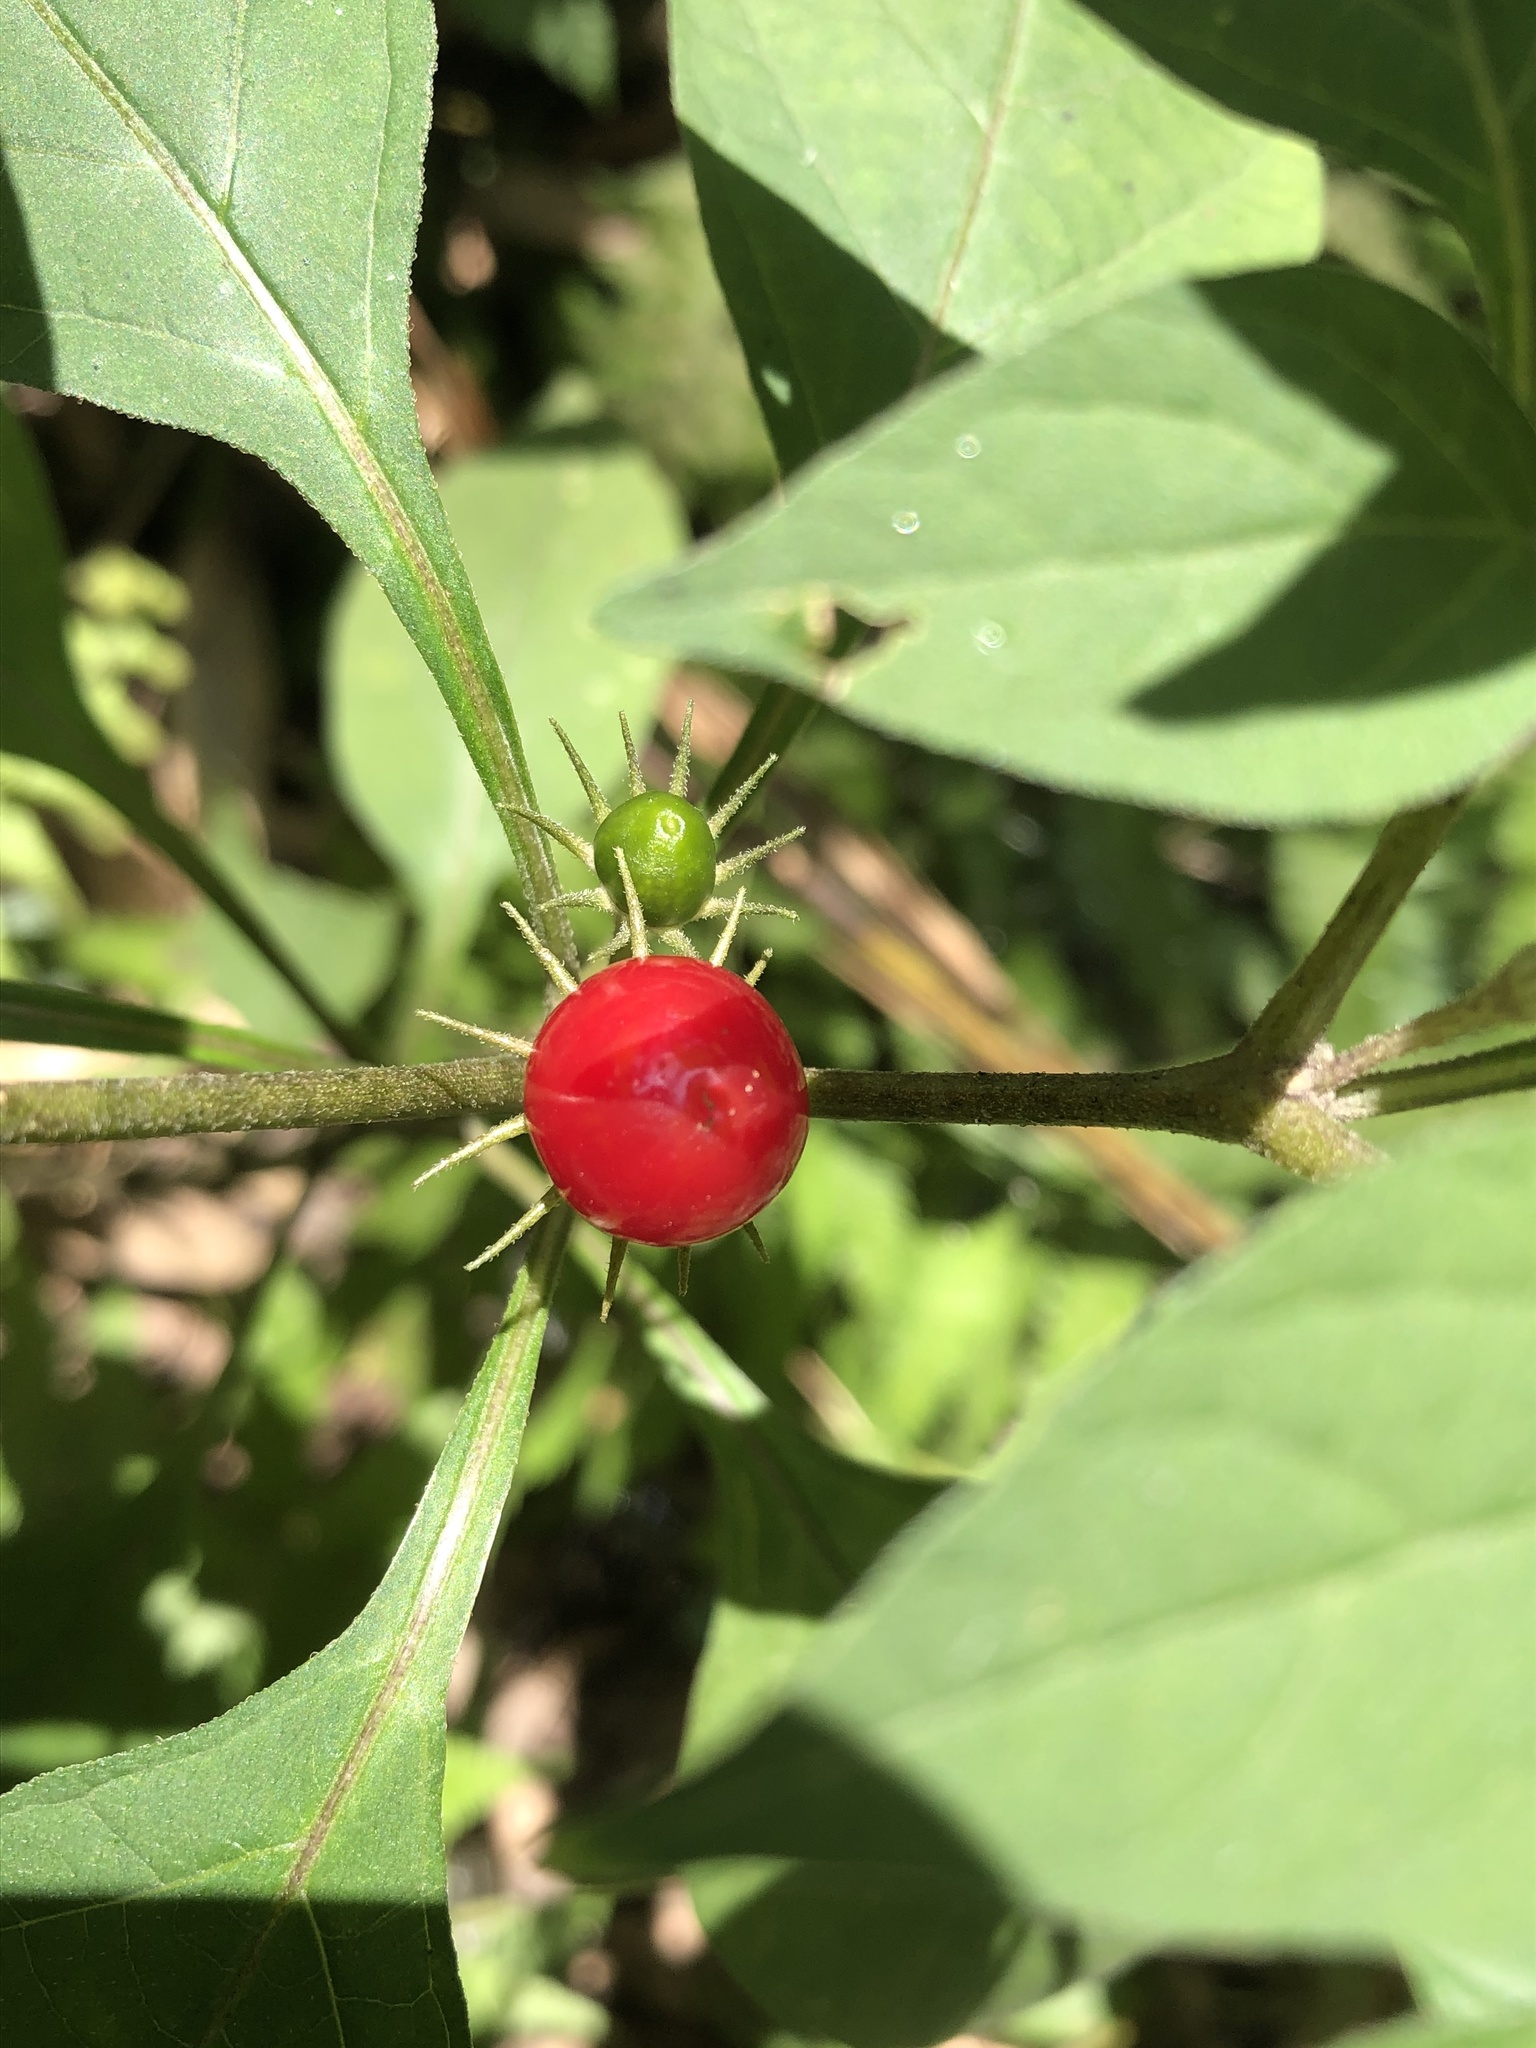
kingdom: Plantae
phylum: Tracheophyta
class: Magnoliopsida
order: Solanales
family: Solanaceae
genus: Lycianthes
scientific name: Lycianthes biflora
